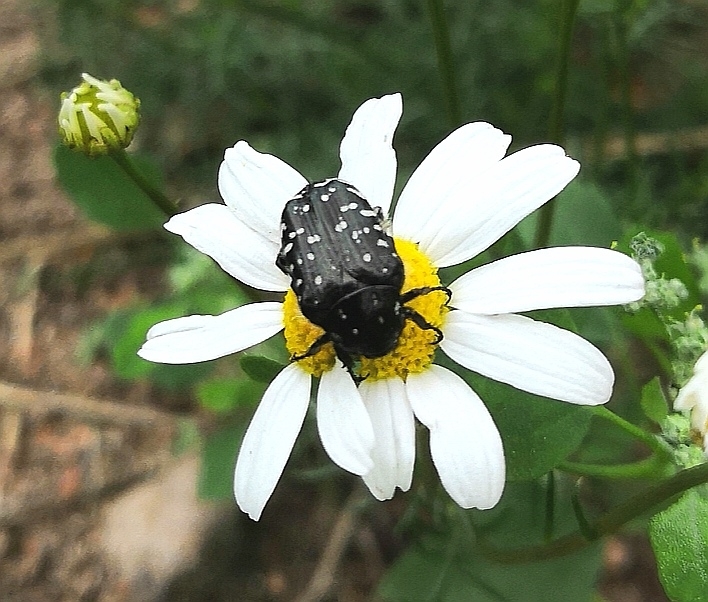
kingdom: Animalia
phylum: Arthropoda
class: Insecta
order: Coleoptera
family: Scarabaeidae
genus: Oxythyrea
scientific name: Oxythyrea funesta
